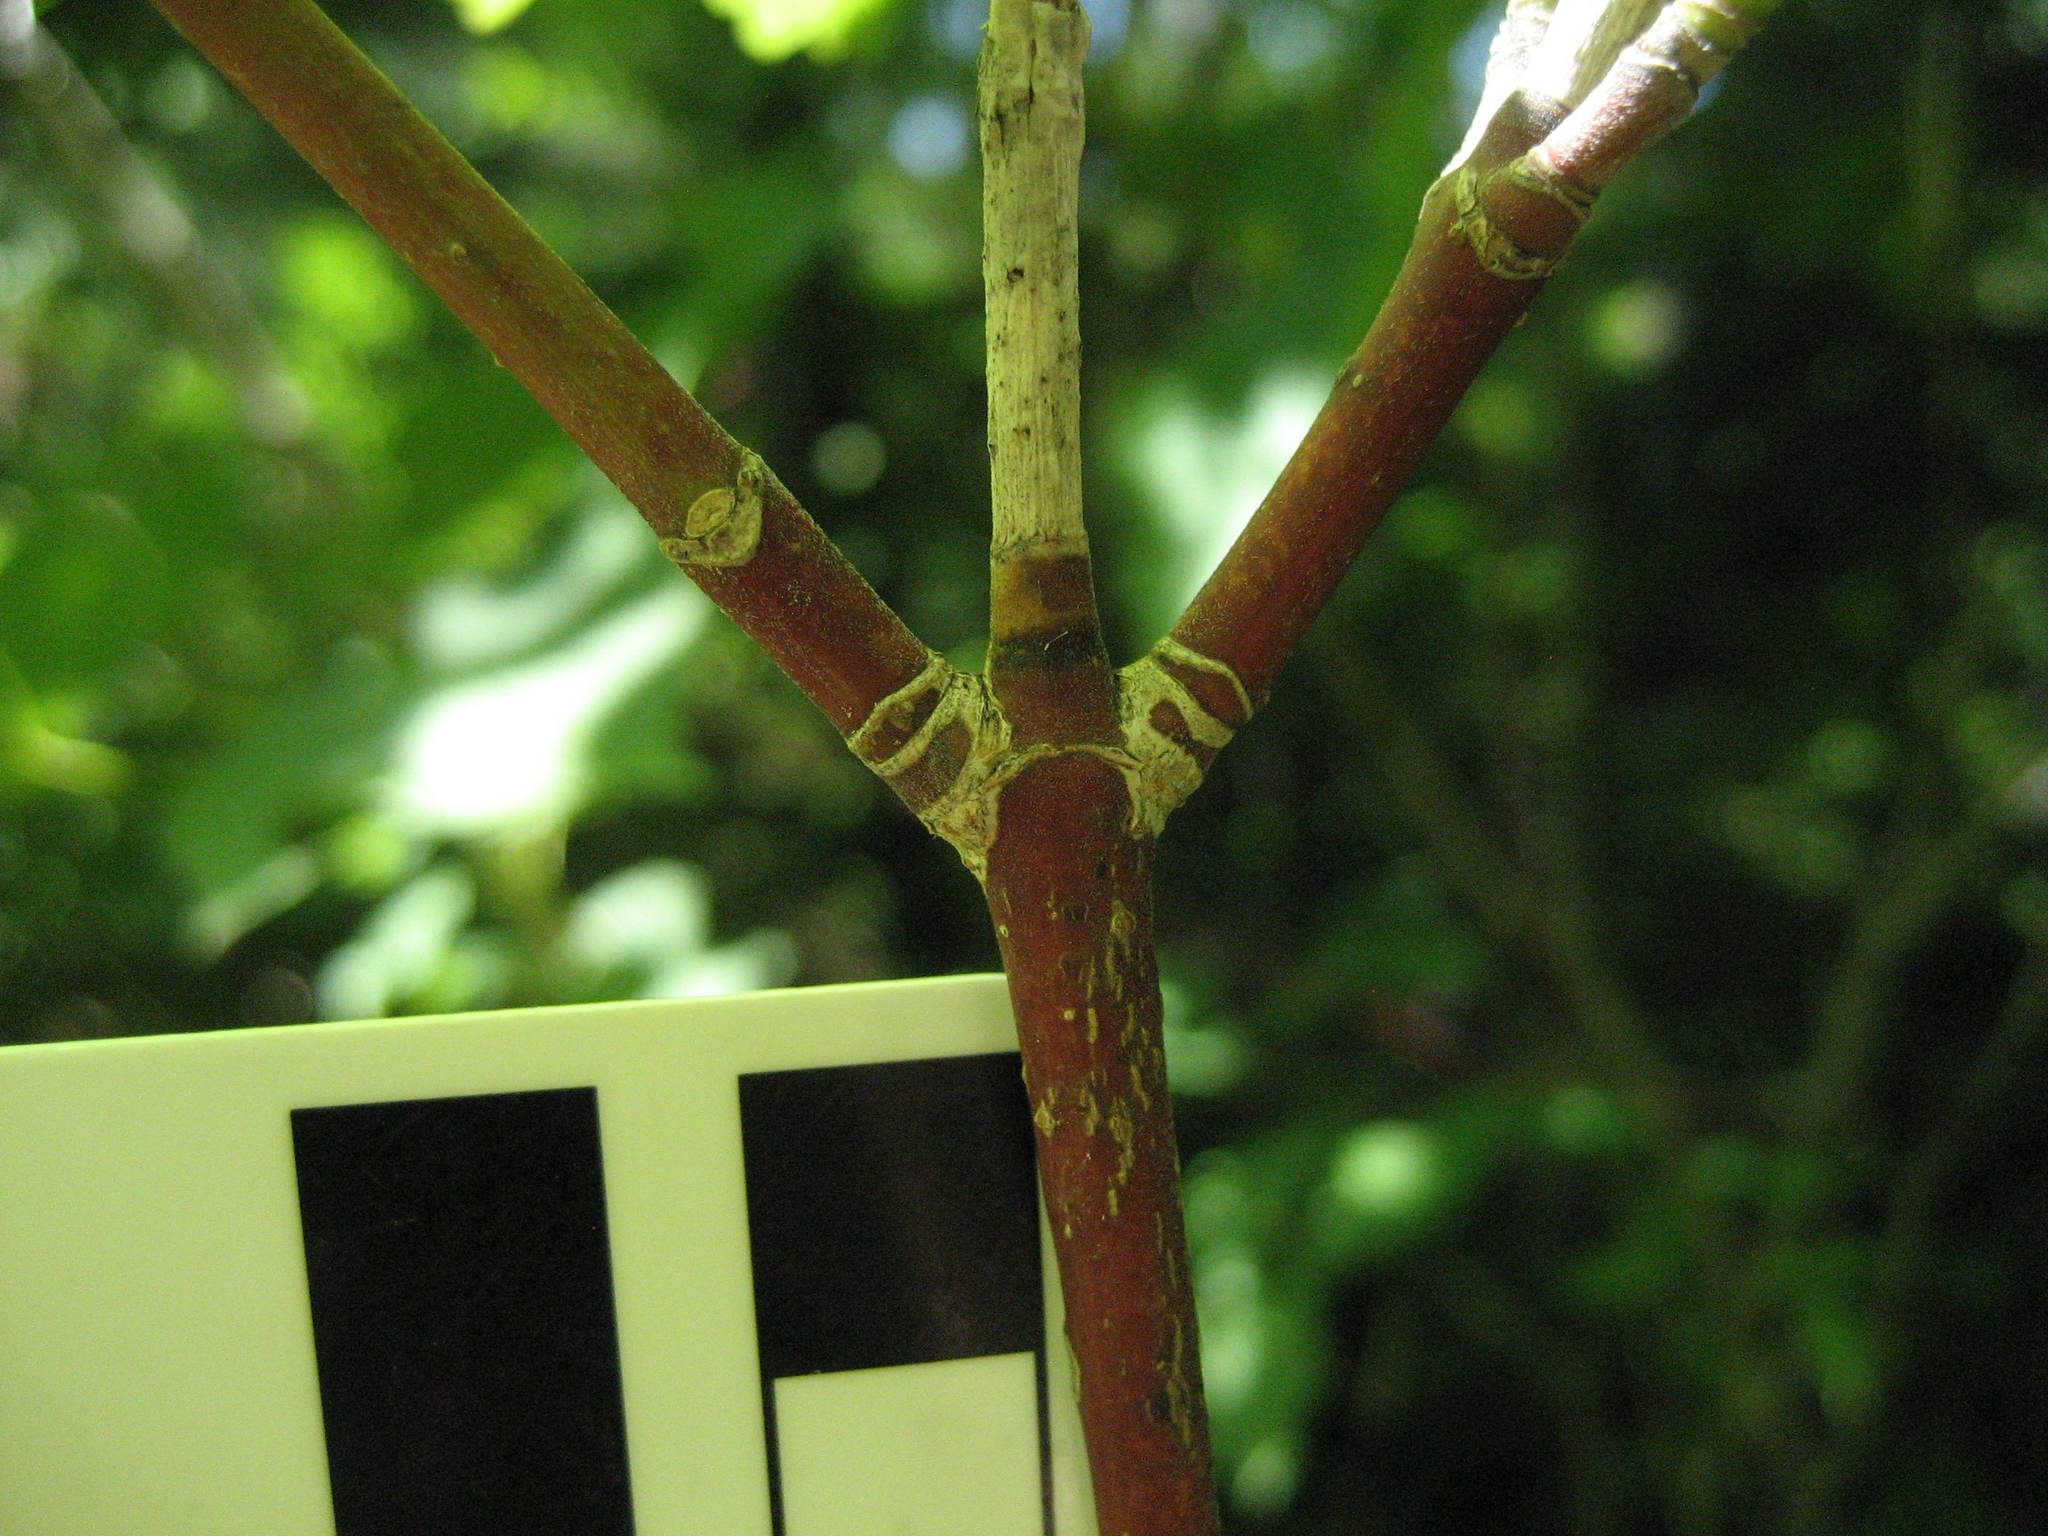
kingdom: Plantae
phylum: Tracheophyta
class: Magnoliopsida
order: Sapindales
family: Sapindaceae
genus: Acer
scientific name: Acer spicatum
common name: Mountain maple
